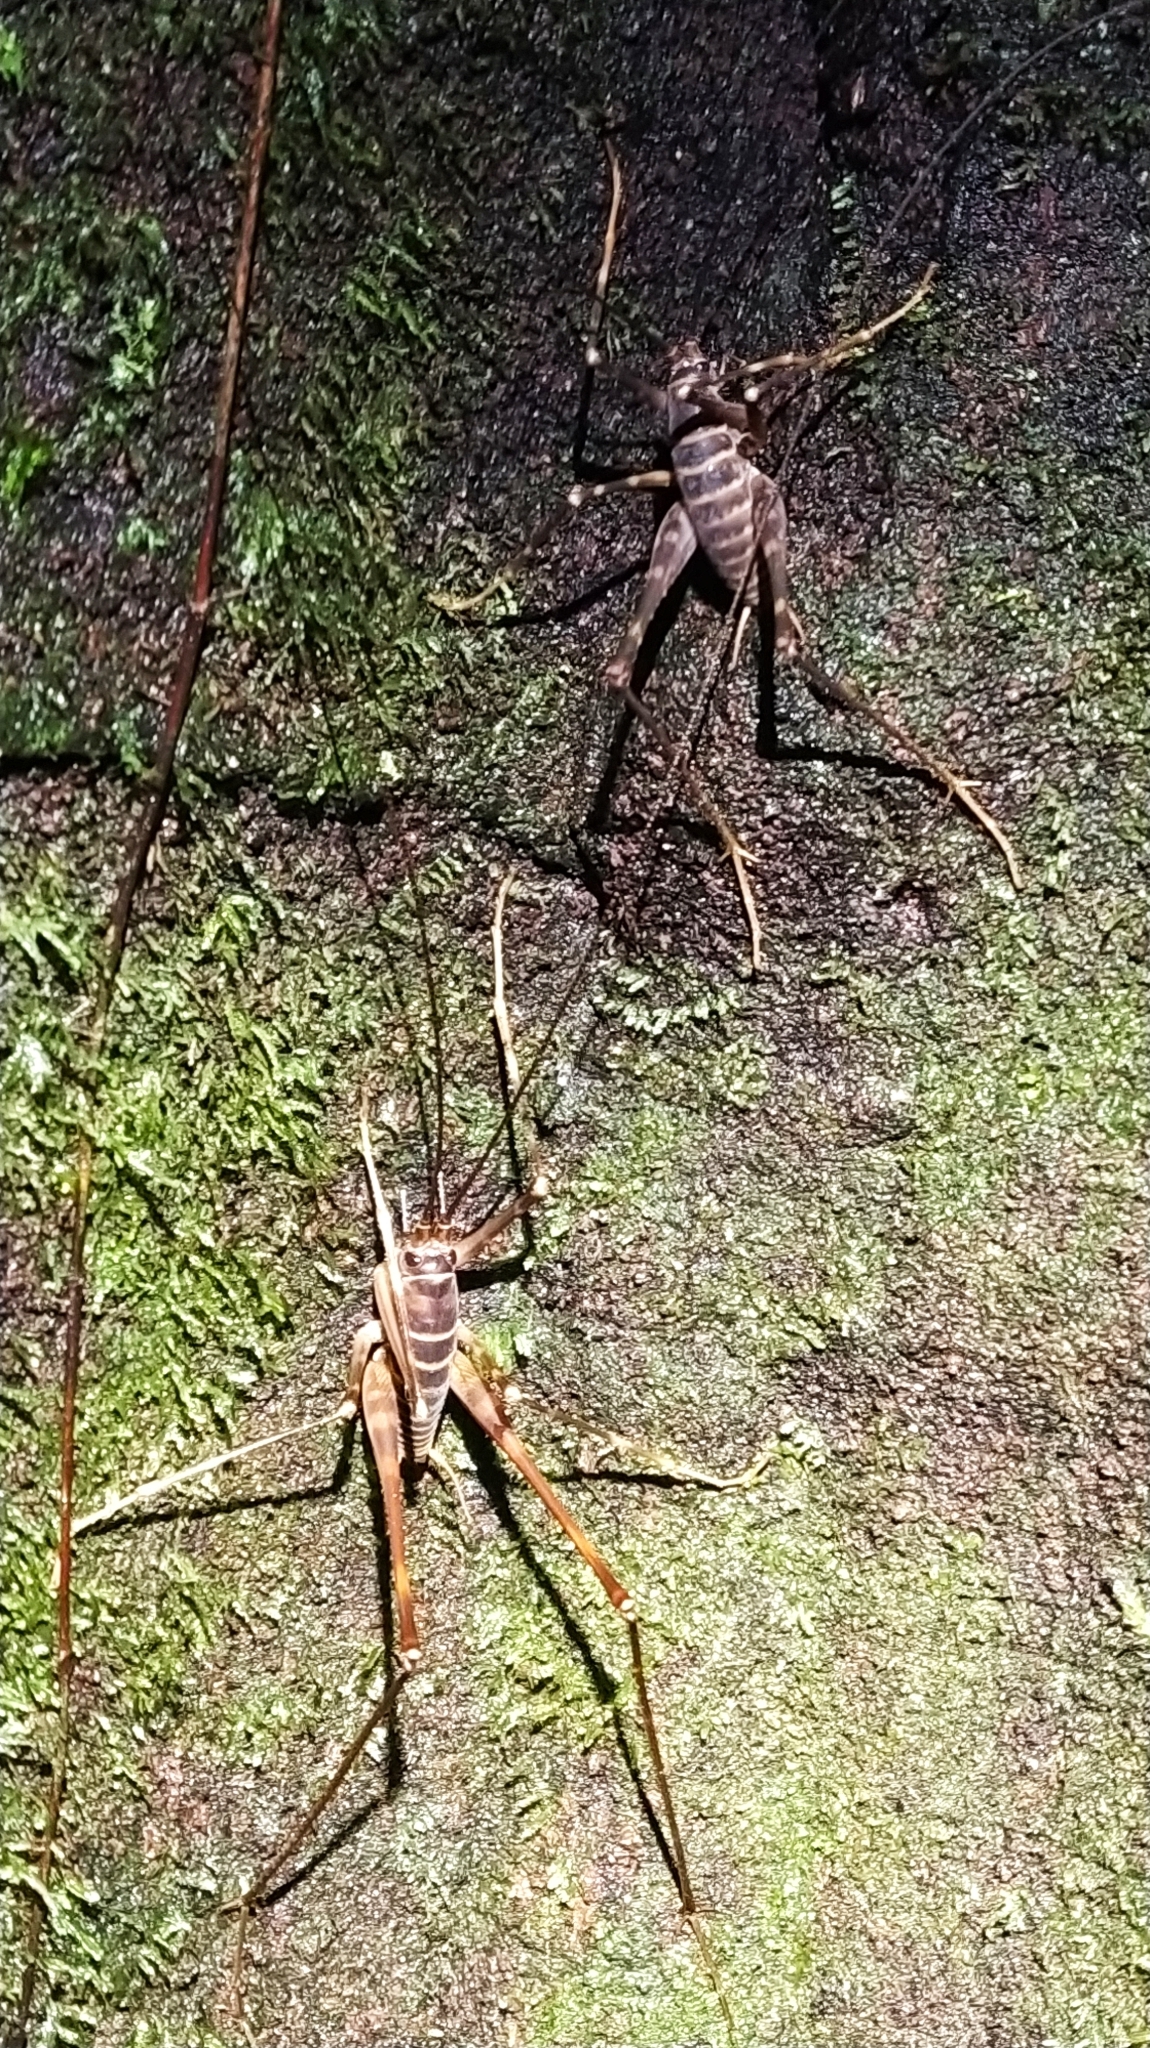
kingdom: Animalia
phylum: Arthropoda
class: Insecta
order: Orthoptera
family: Rhaphidophoridae
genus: Pachyrhamma
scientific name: Pachyrhamma acanthocera
